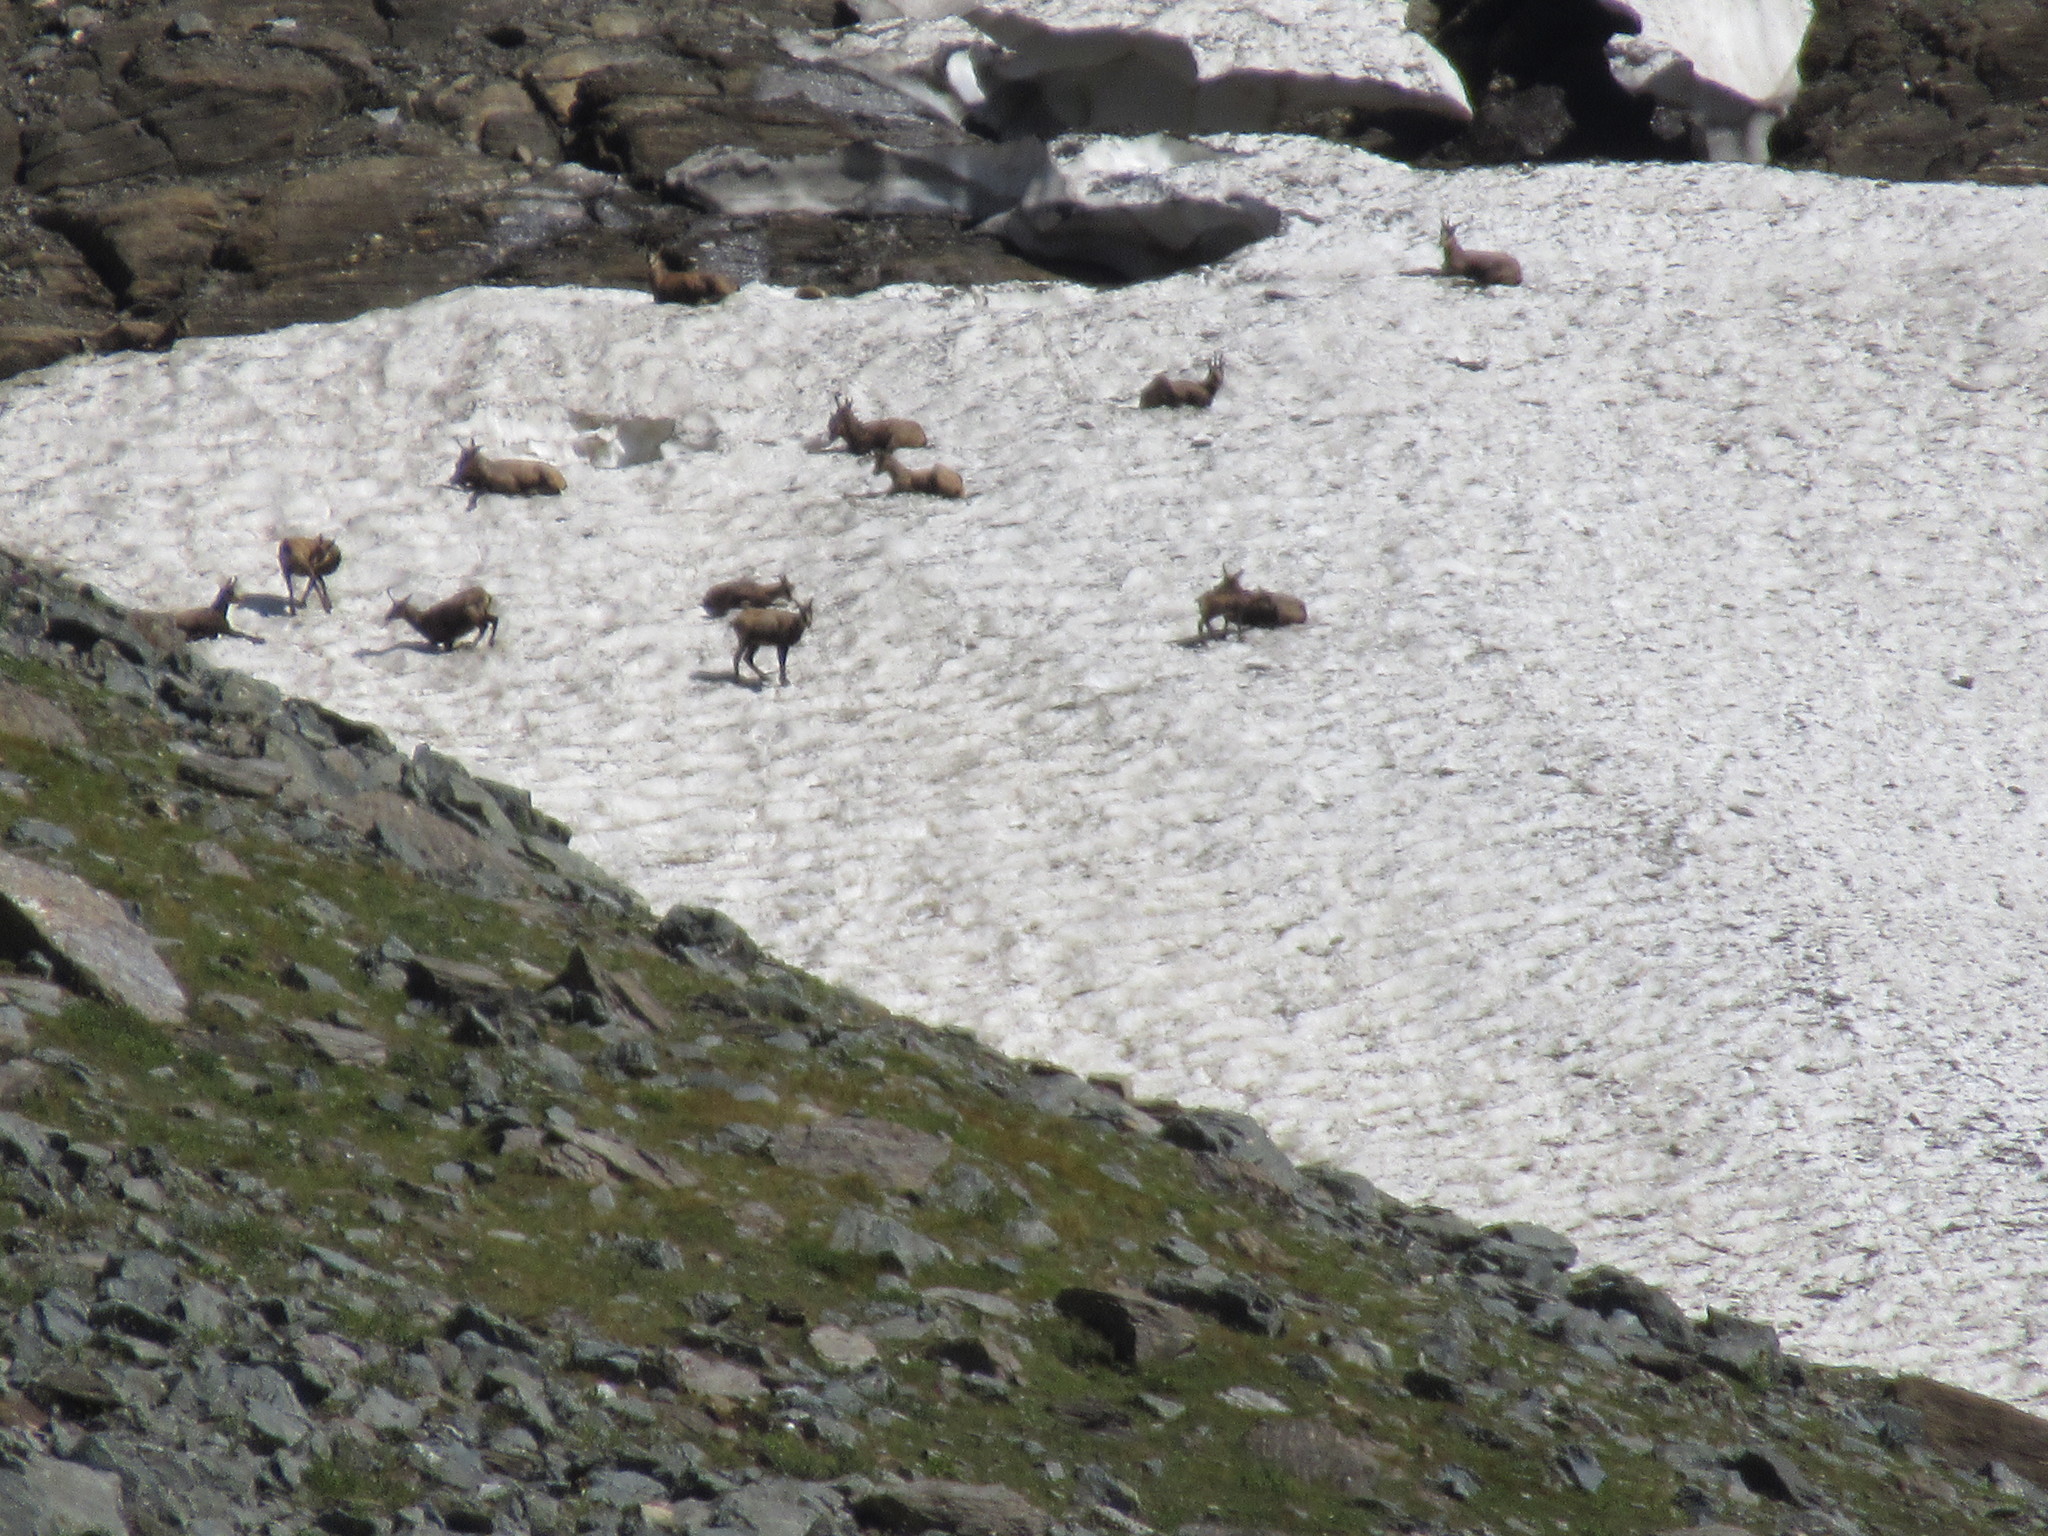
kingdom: Animalia
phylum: Chordata
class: Mammalia
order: Artiodactyla
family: Bovidae
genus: Rupicapra
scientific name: Rupicapra rupicapra
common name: Chamois
